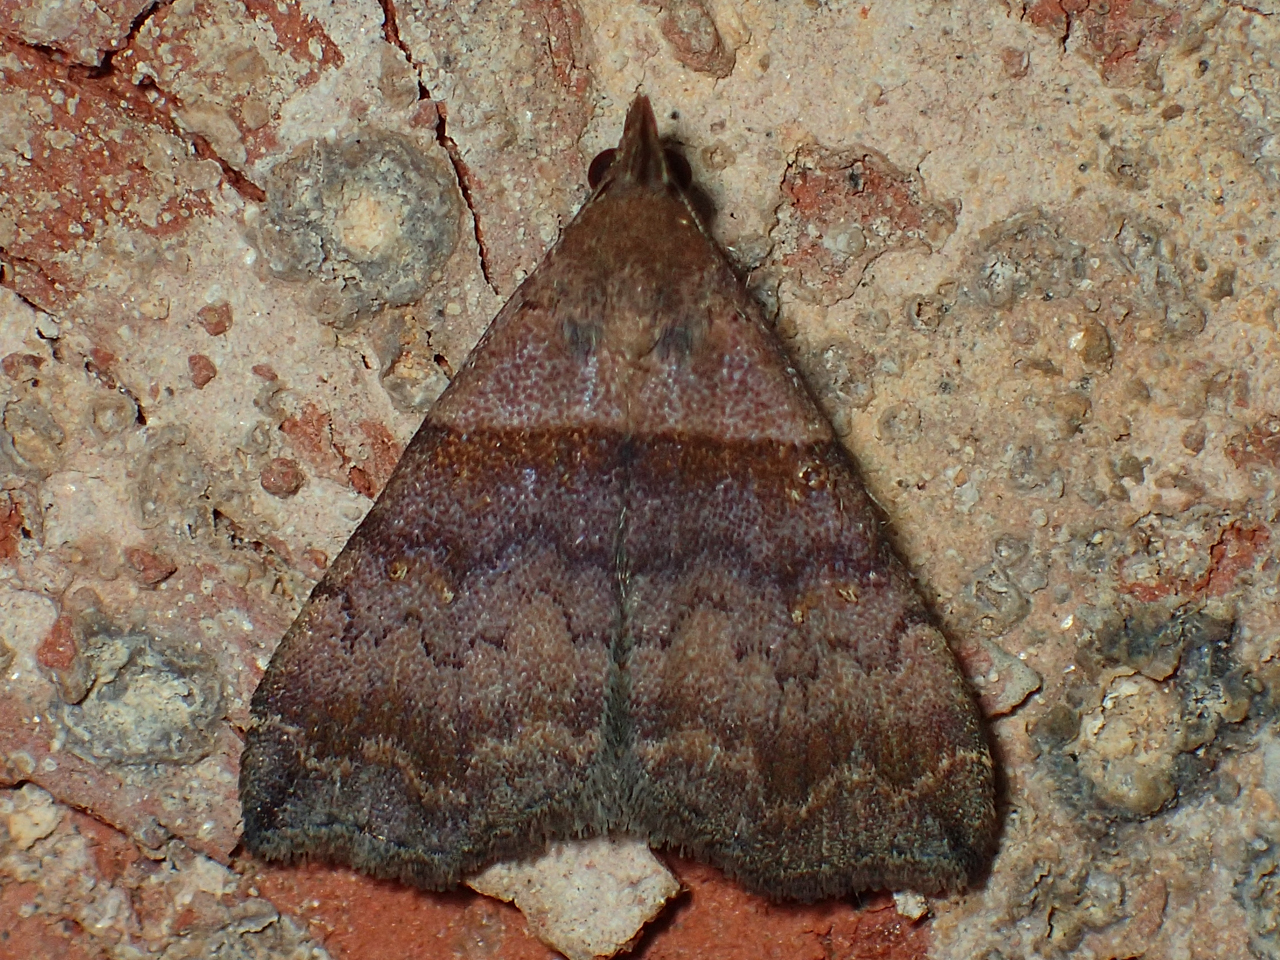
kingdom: Animalia
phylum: Arthropoda
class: Insecta
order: Lepidoptera
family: Erebidae
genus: Lascoria
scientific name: Lascoria ambigualis
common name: Ambiguous moth
